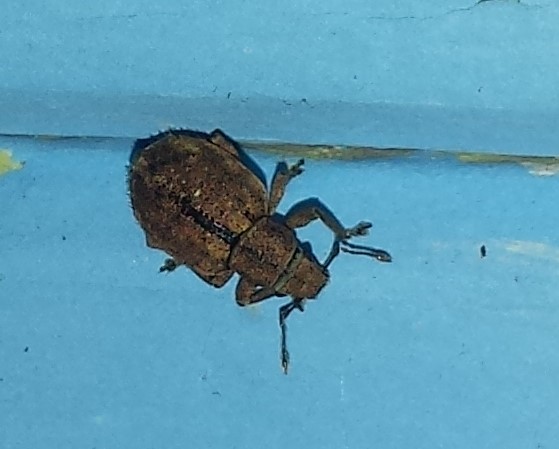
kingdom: Animalia
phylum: Arthropoda
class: Insecta
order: Coleoptera
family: Curculionidae
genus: Strophosoma
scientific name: Strophosoma melanogrammum
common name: Weevil
